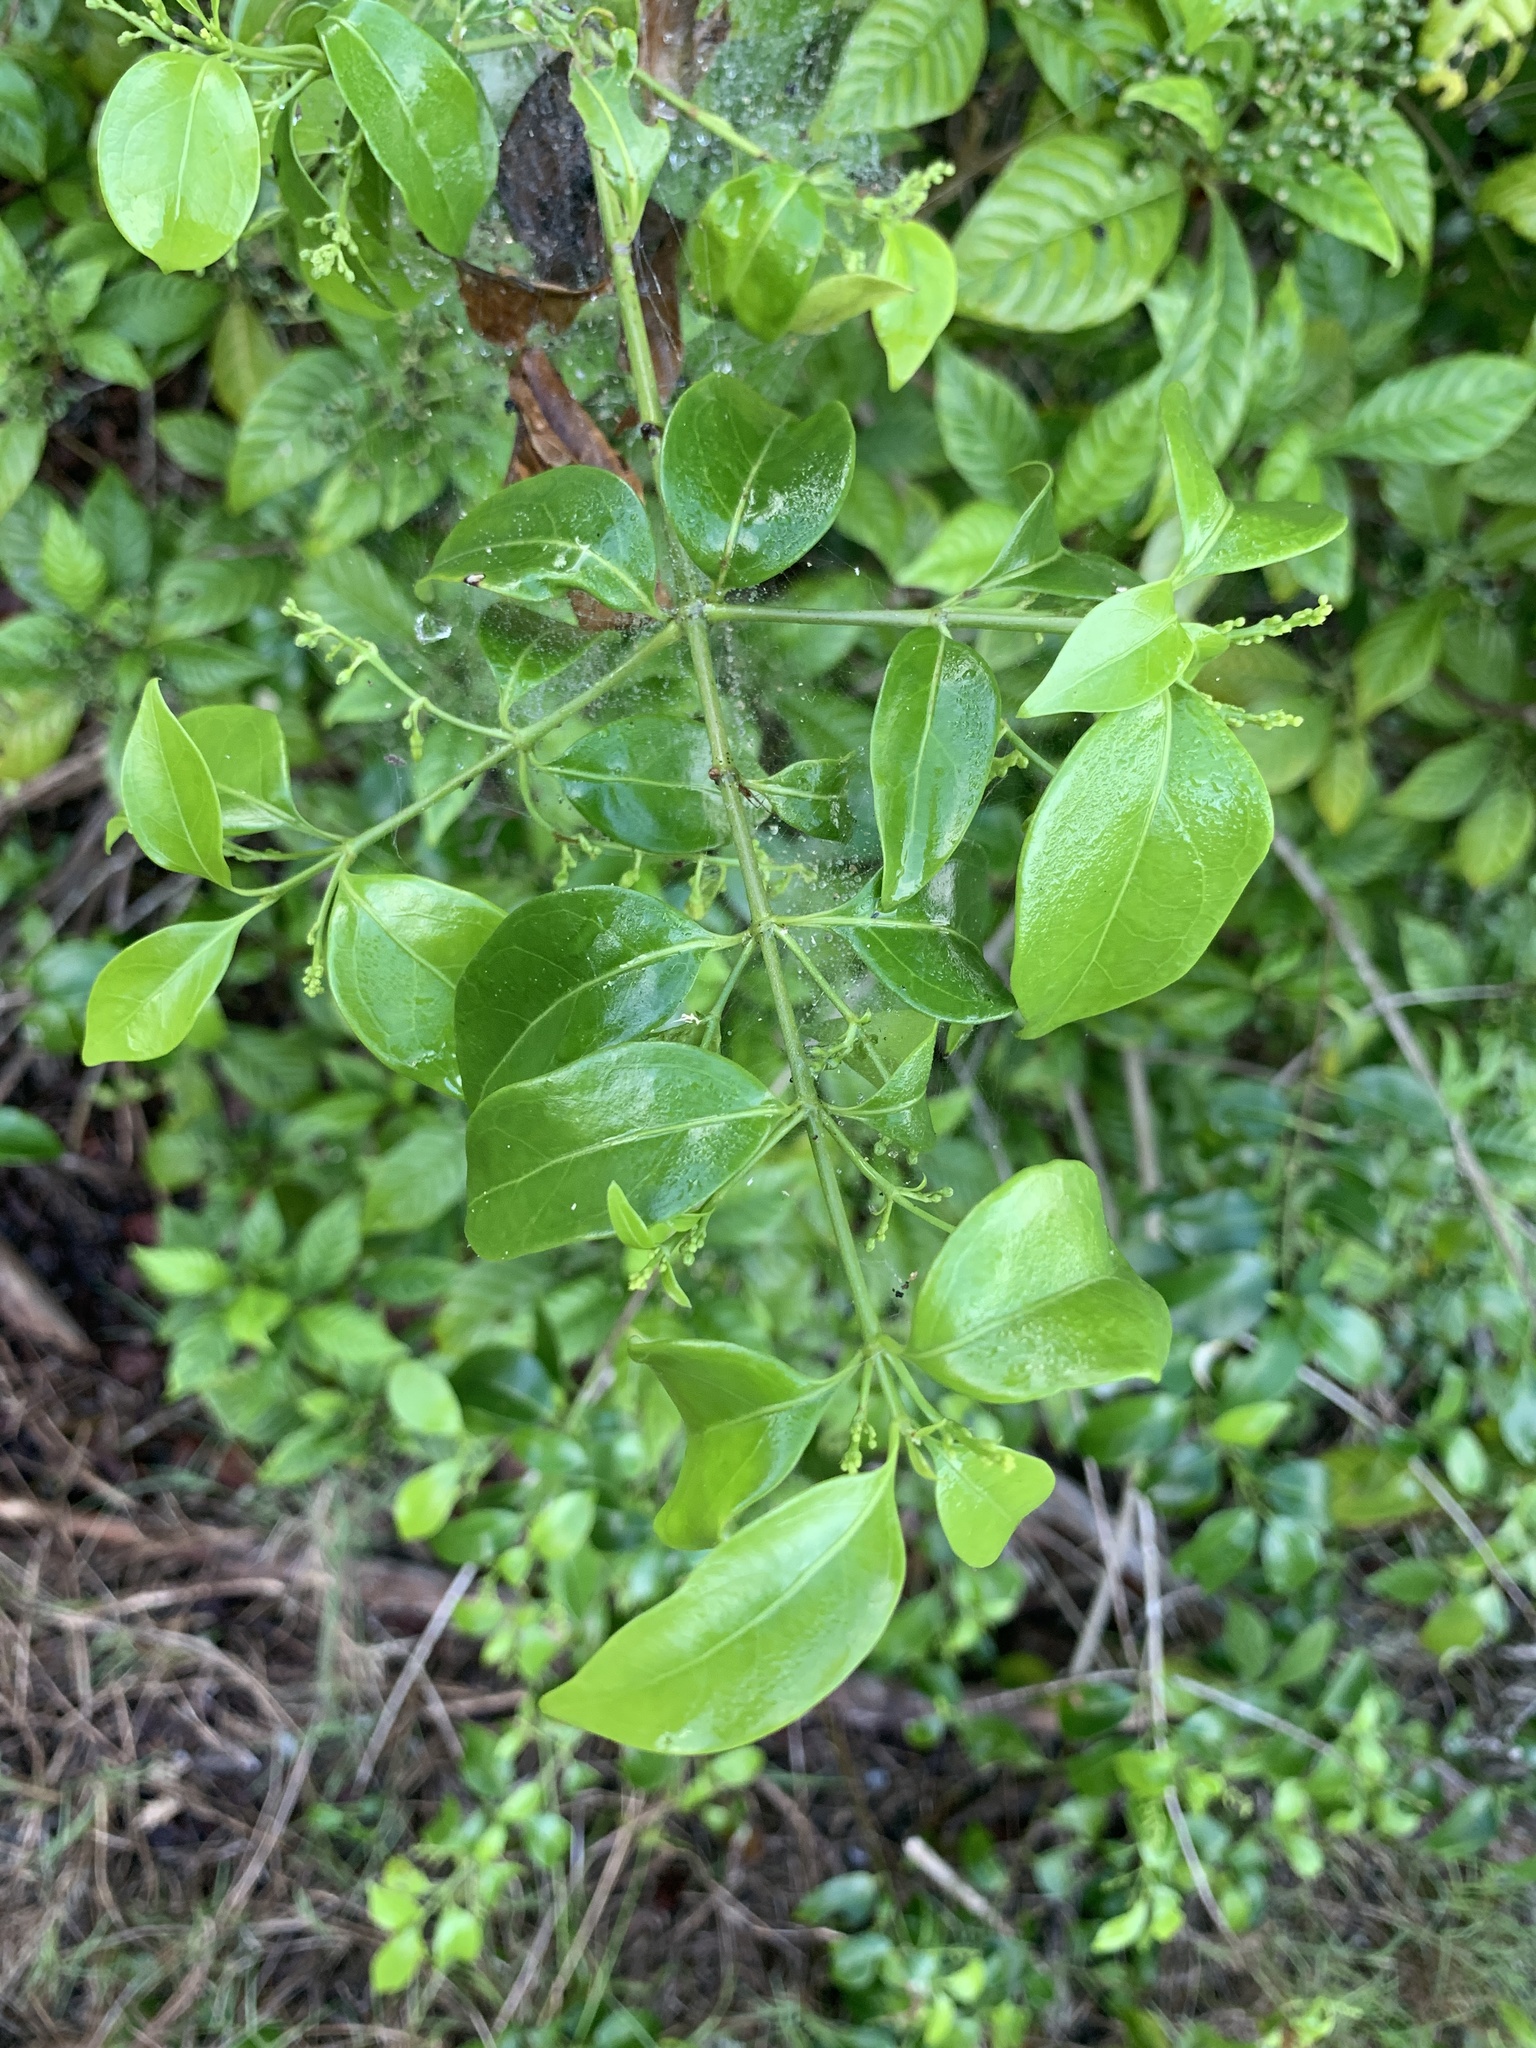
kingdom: Plantae
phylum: Tracheophyta
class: Magnoliopsida
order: Gentianales
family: Rubiaceae
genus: Chiococca
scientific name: Chiococca alba
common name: Snowberry
